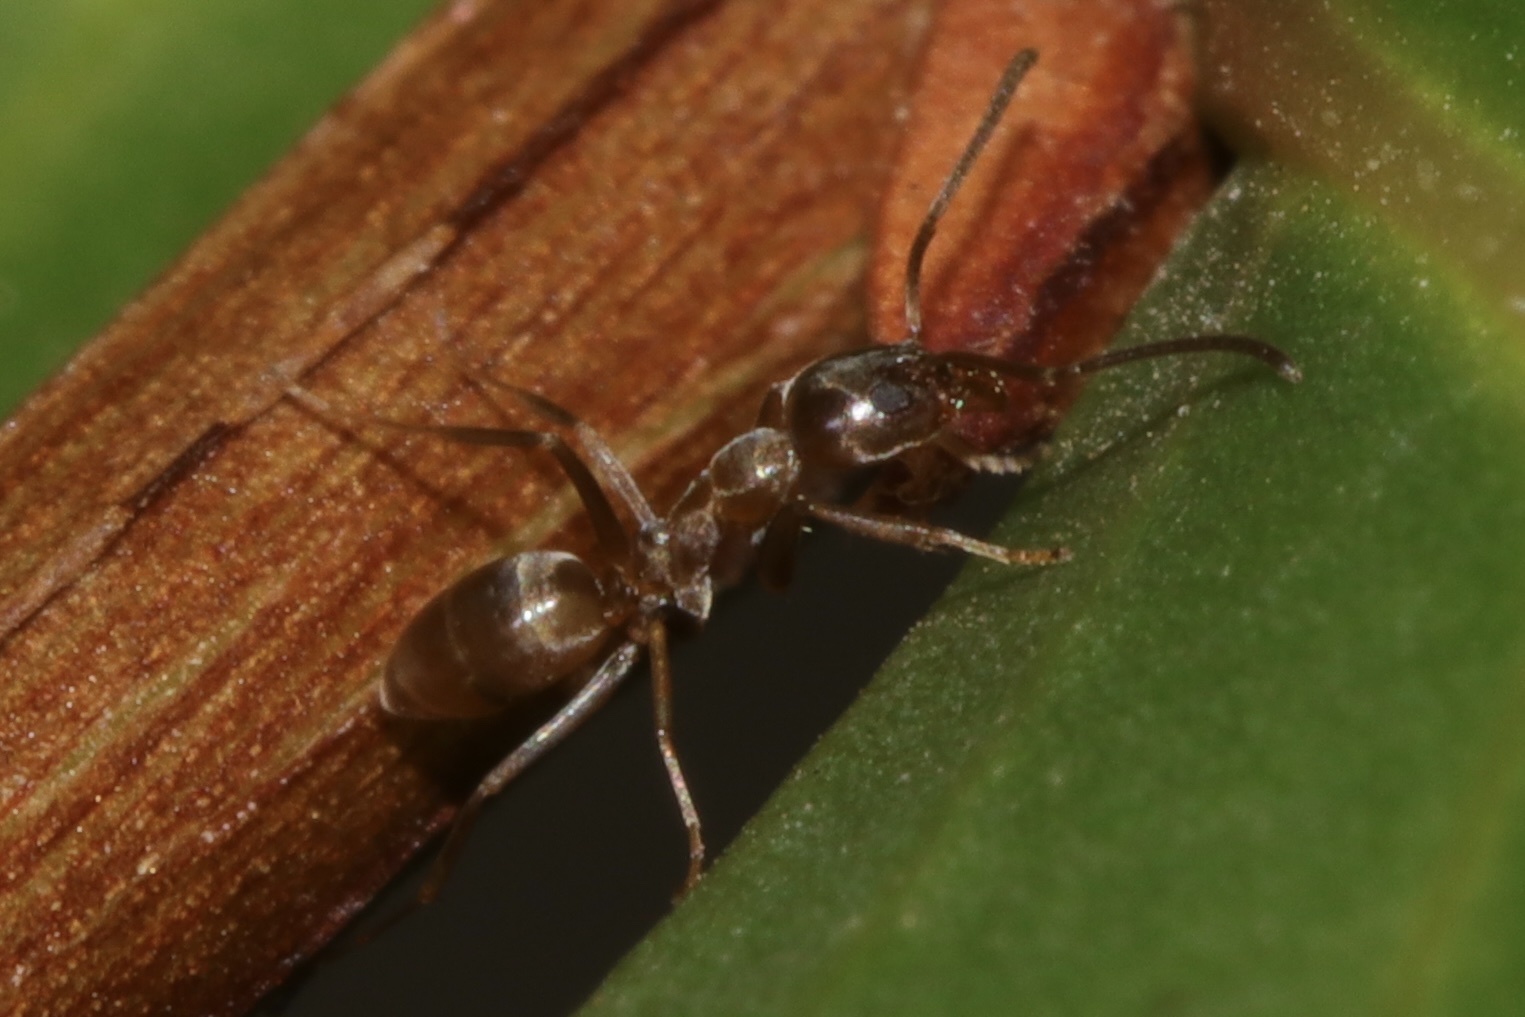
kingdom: Animalia
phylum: Arthropoda
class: Insecta
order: Hymenoptera
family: Formicidae
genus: Linepithema
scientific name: Linepithema humile
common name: Argentine ant
